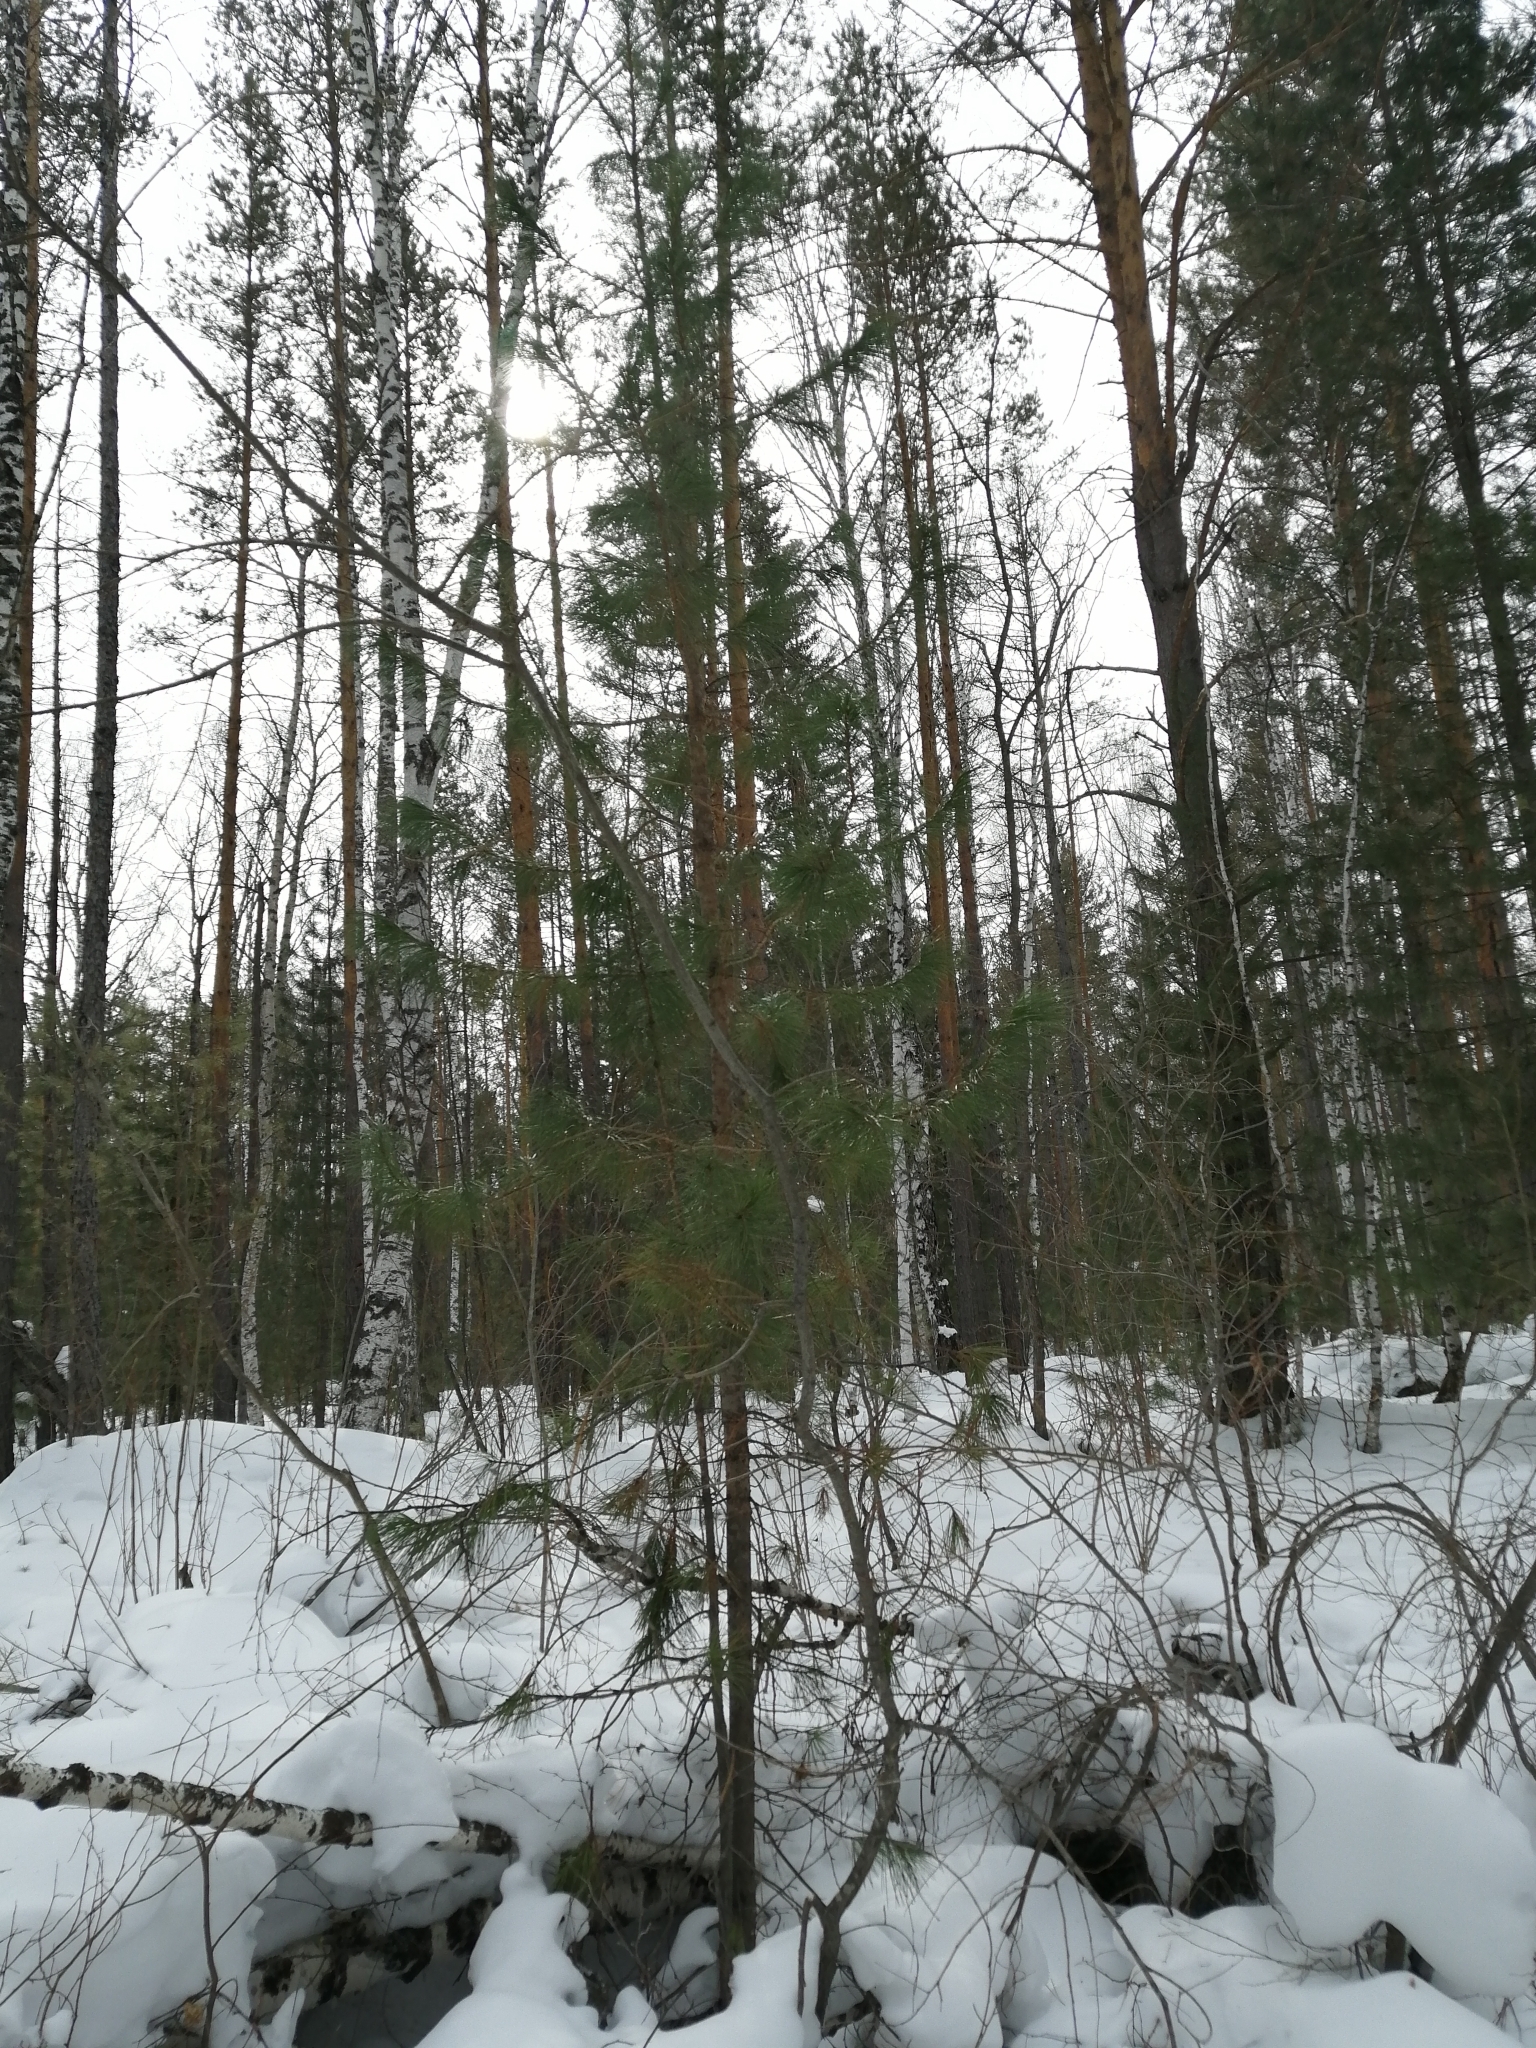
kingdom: Plantae
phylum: Tracheophyta
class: Pinopsida
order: Pinales
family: Pinaceae
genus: Pinus
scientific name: Pinus sibirica
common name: Siberian pine
